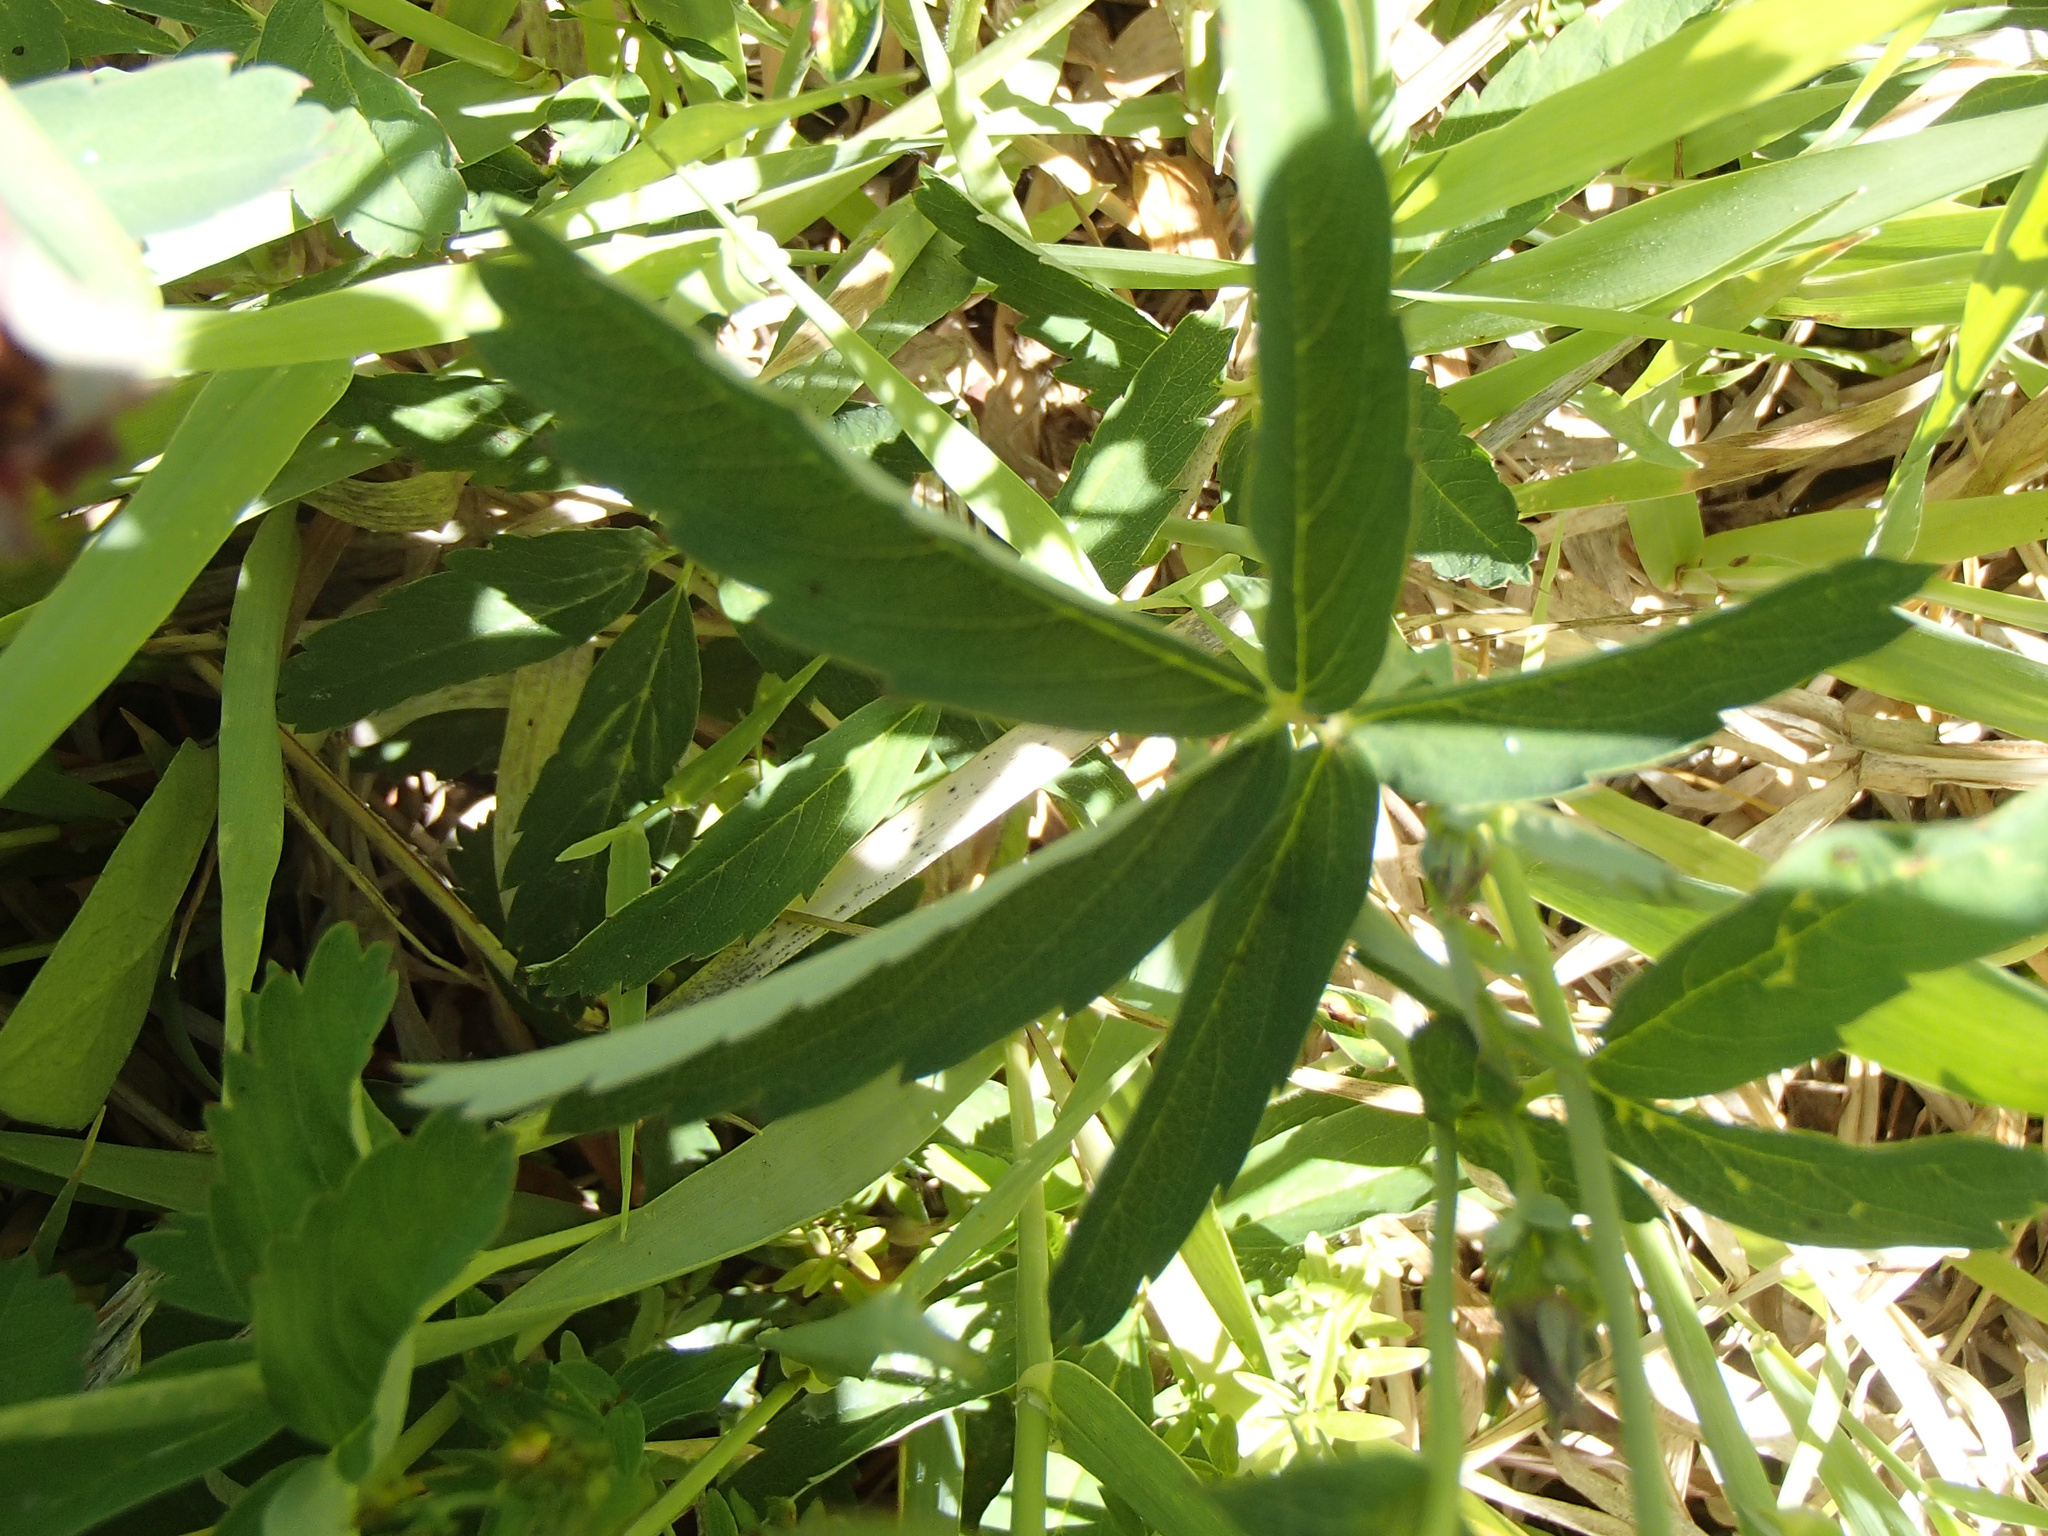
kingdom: Plantae
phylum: Tracheophyta
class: Magnoliopsida
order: Rosales
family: Rosaceae
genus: Comarum
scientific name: Comarum palustre
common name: Marsh cinquefoil
